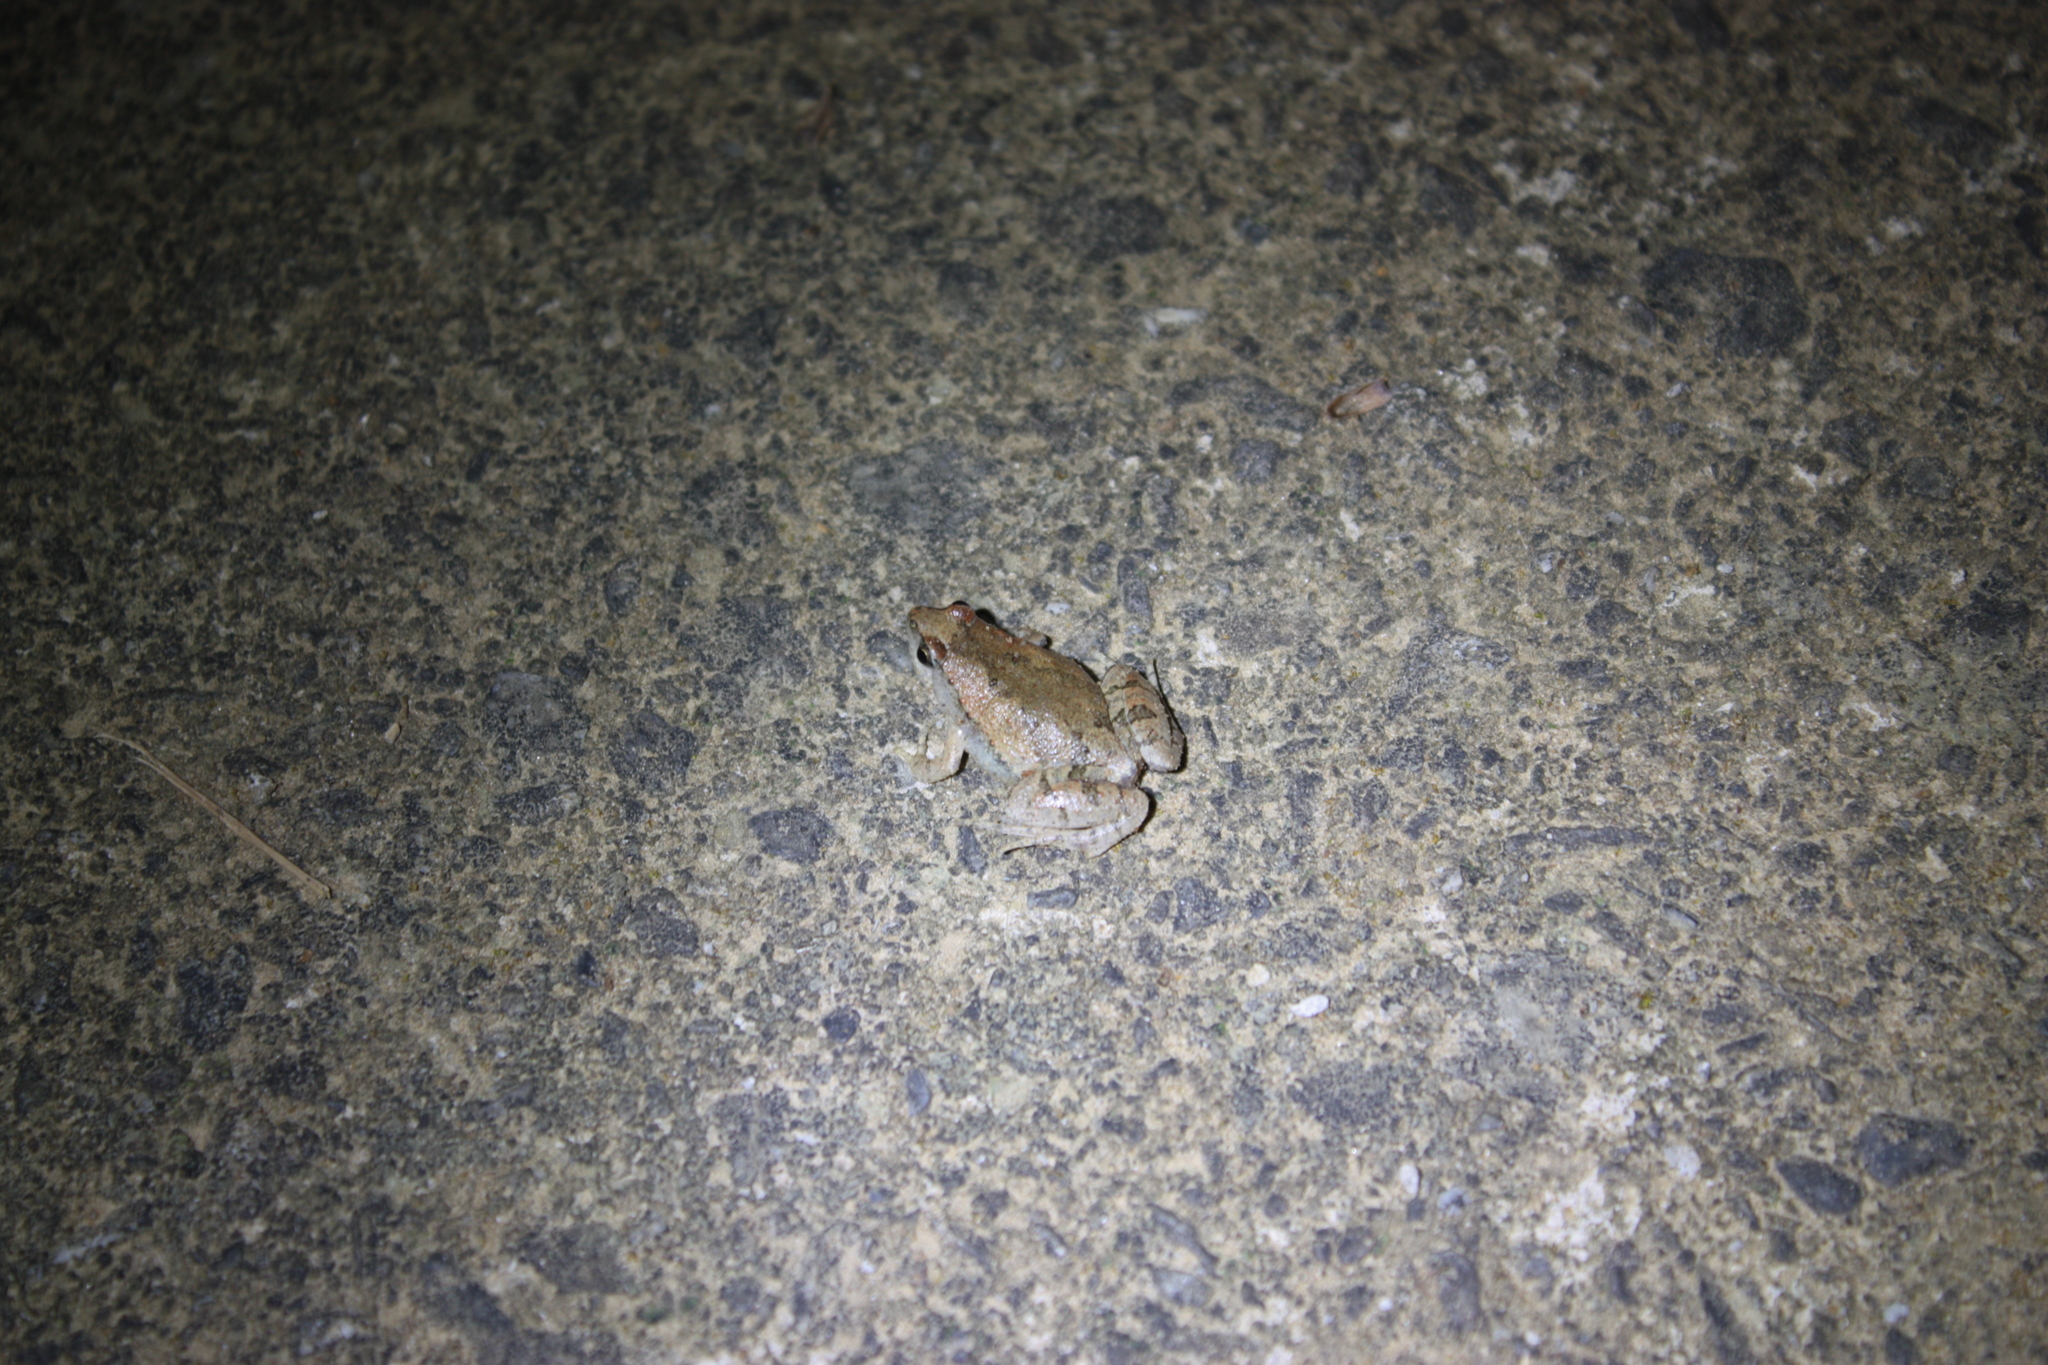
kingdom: Animalia
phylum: Chordata
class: Amphibia
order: Anura
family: Microhylidae
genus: Microhyla
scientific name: Microhyla fissipes
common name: Ornate narrow-mouthed frog
